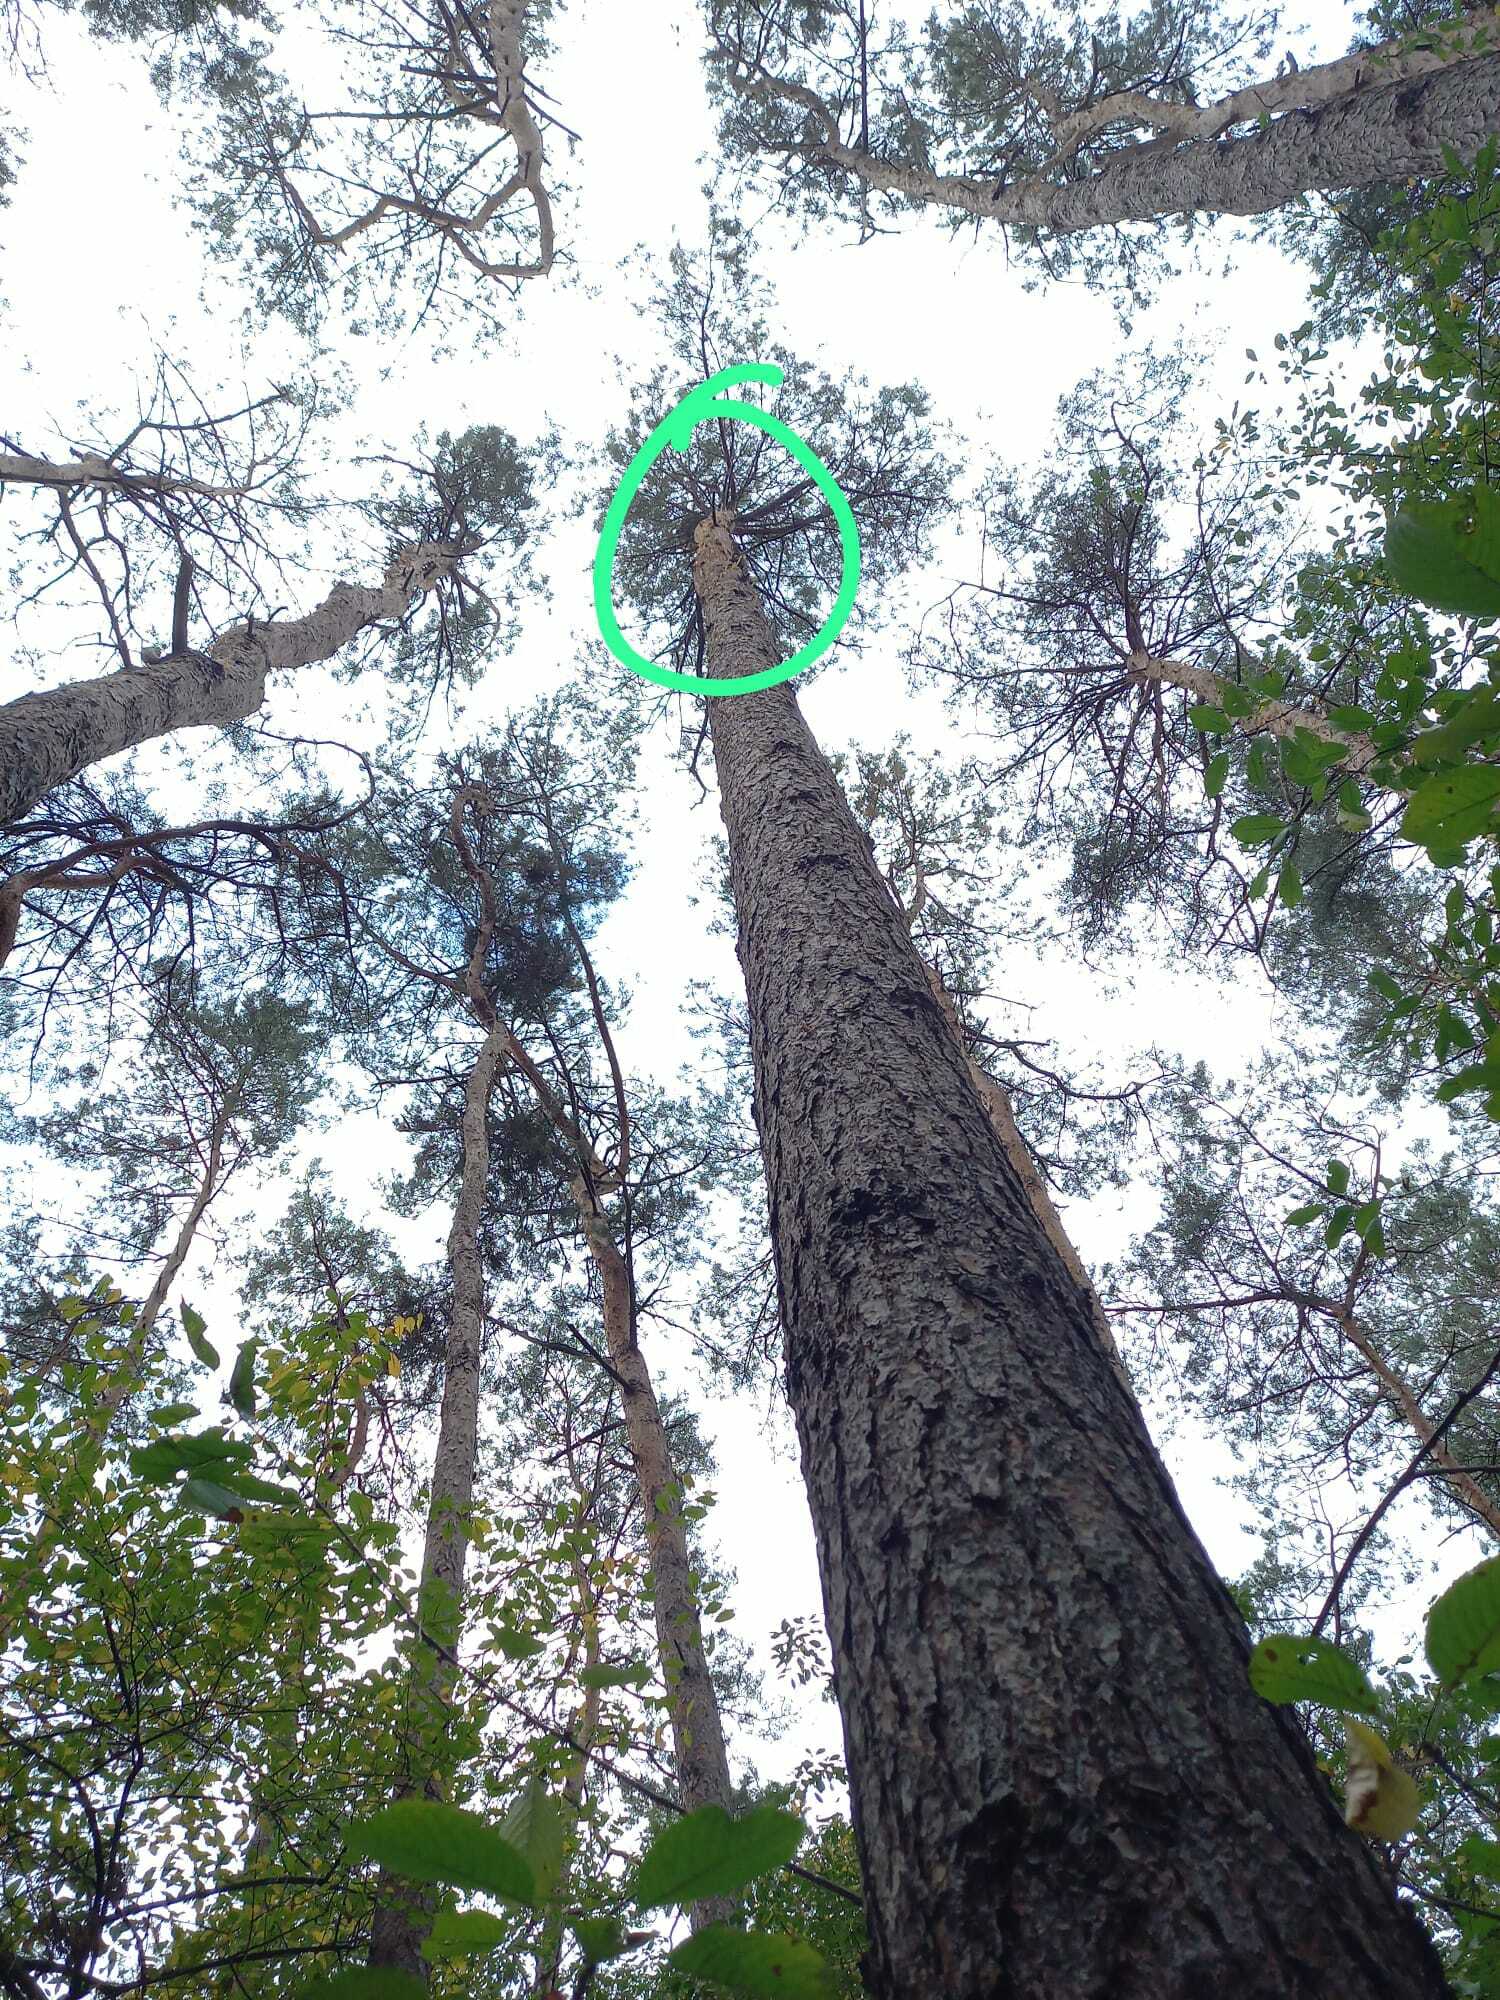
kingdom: Animalia
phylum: Arthropoda
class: Insecta
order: Hymenoptera
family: Vespidae
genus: Vespa
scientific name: Vespa velutina
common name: Asian hornet
